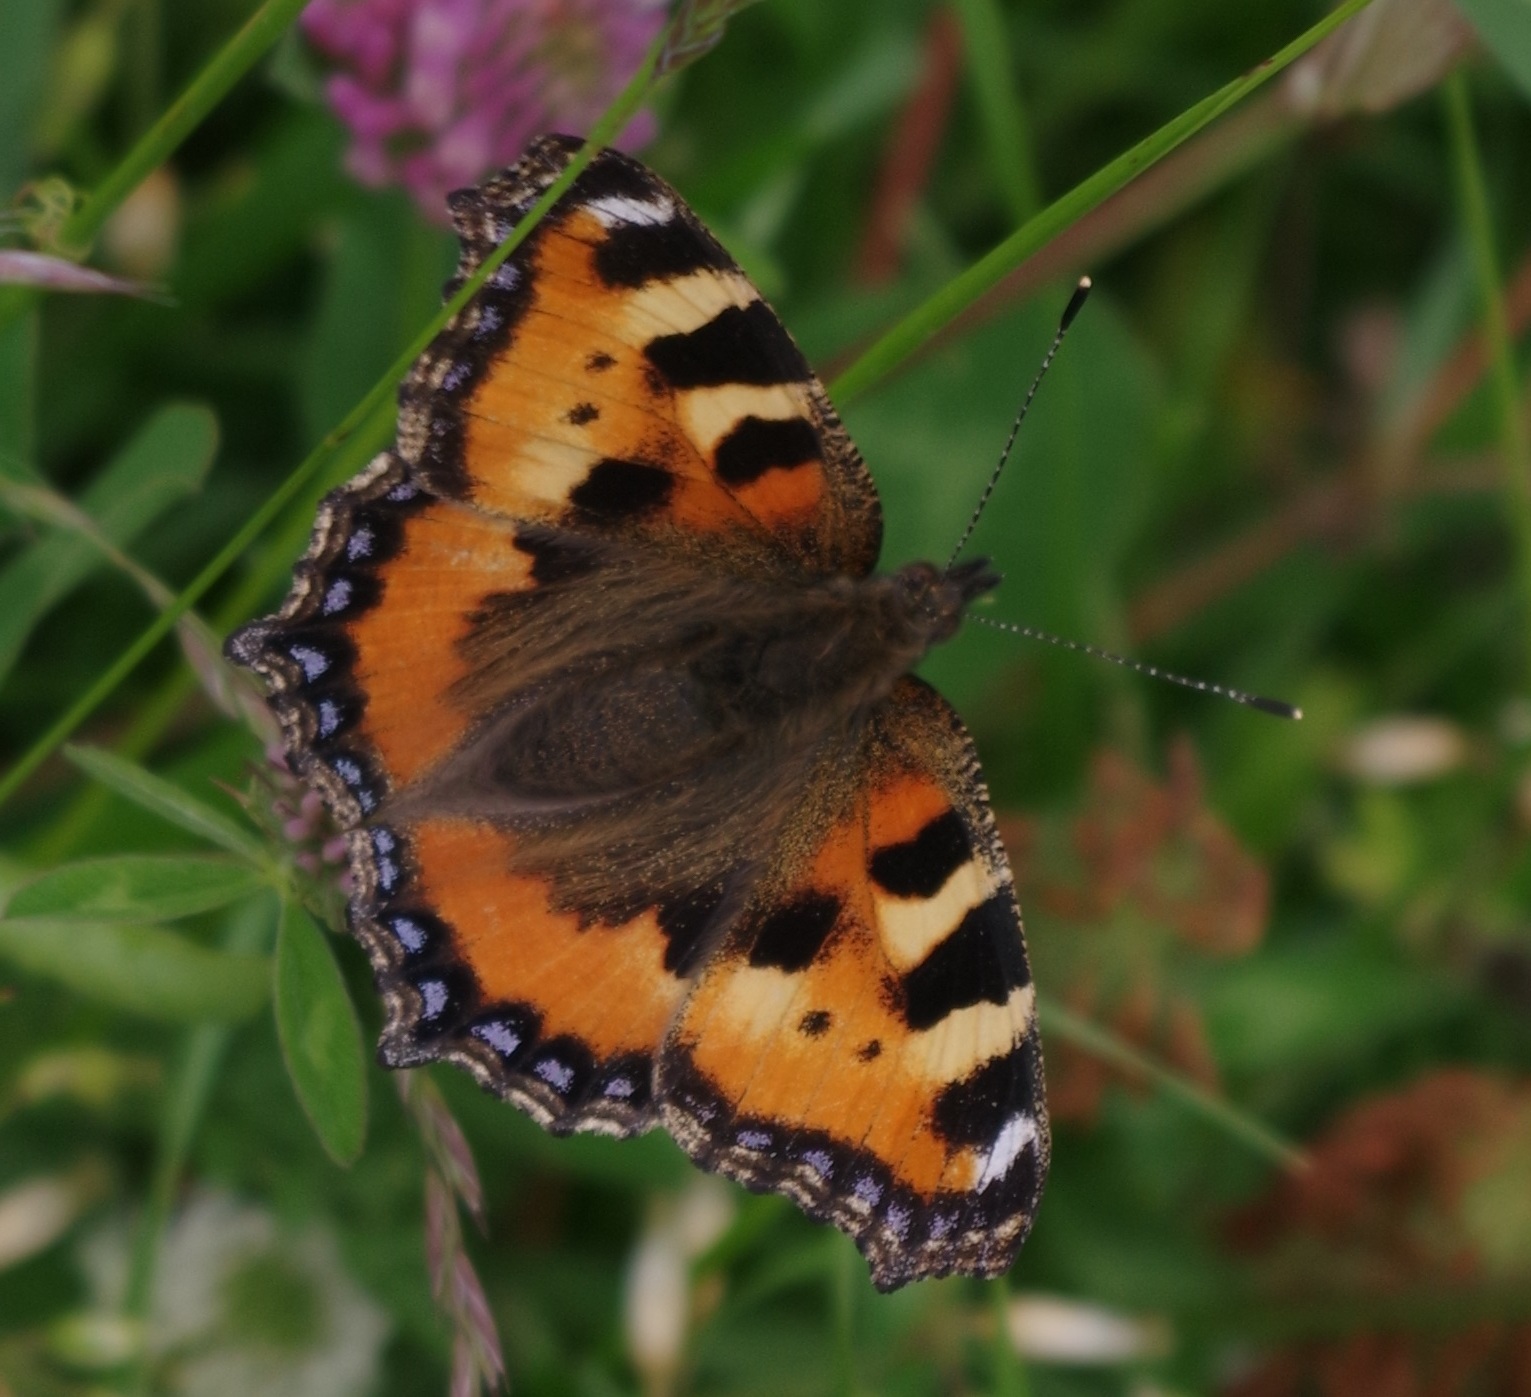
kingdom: Animalia
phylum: Arthropoda
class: Insecta
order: Lepidoptera
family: Nymphalidae
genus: Aglais
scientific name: Aglais urticae
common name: Small tortoiseshell
